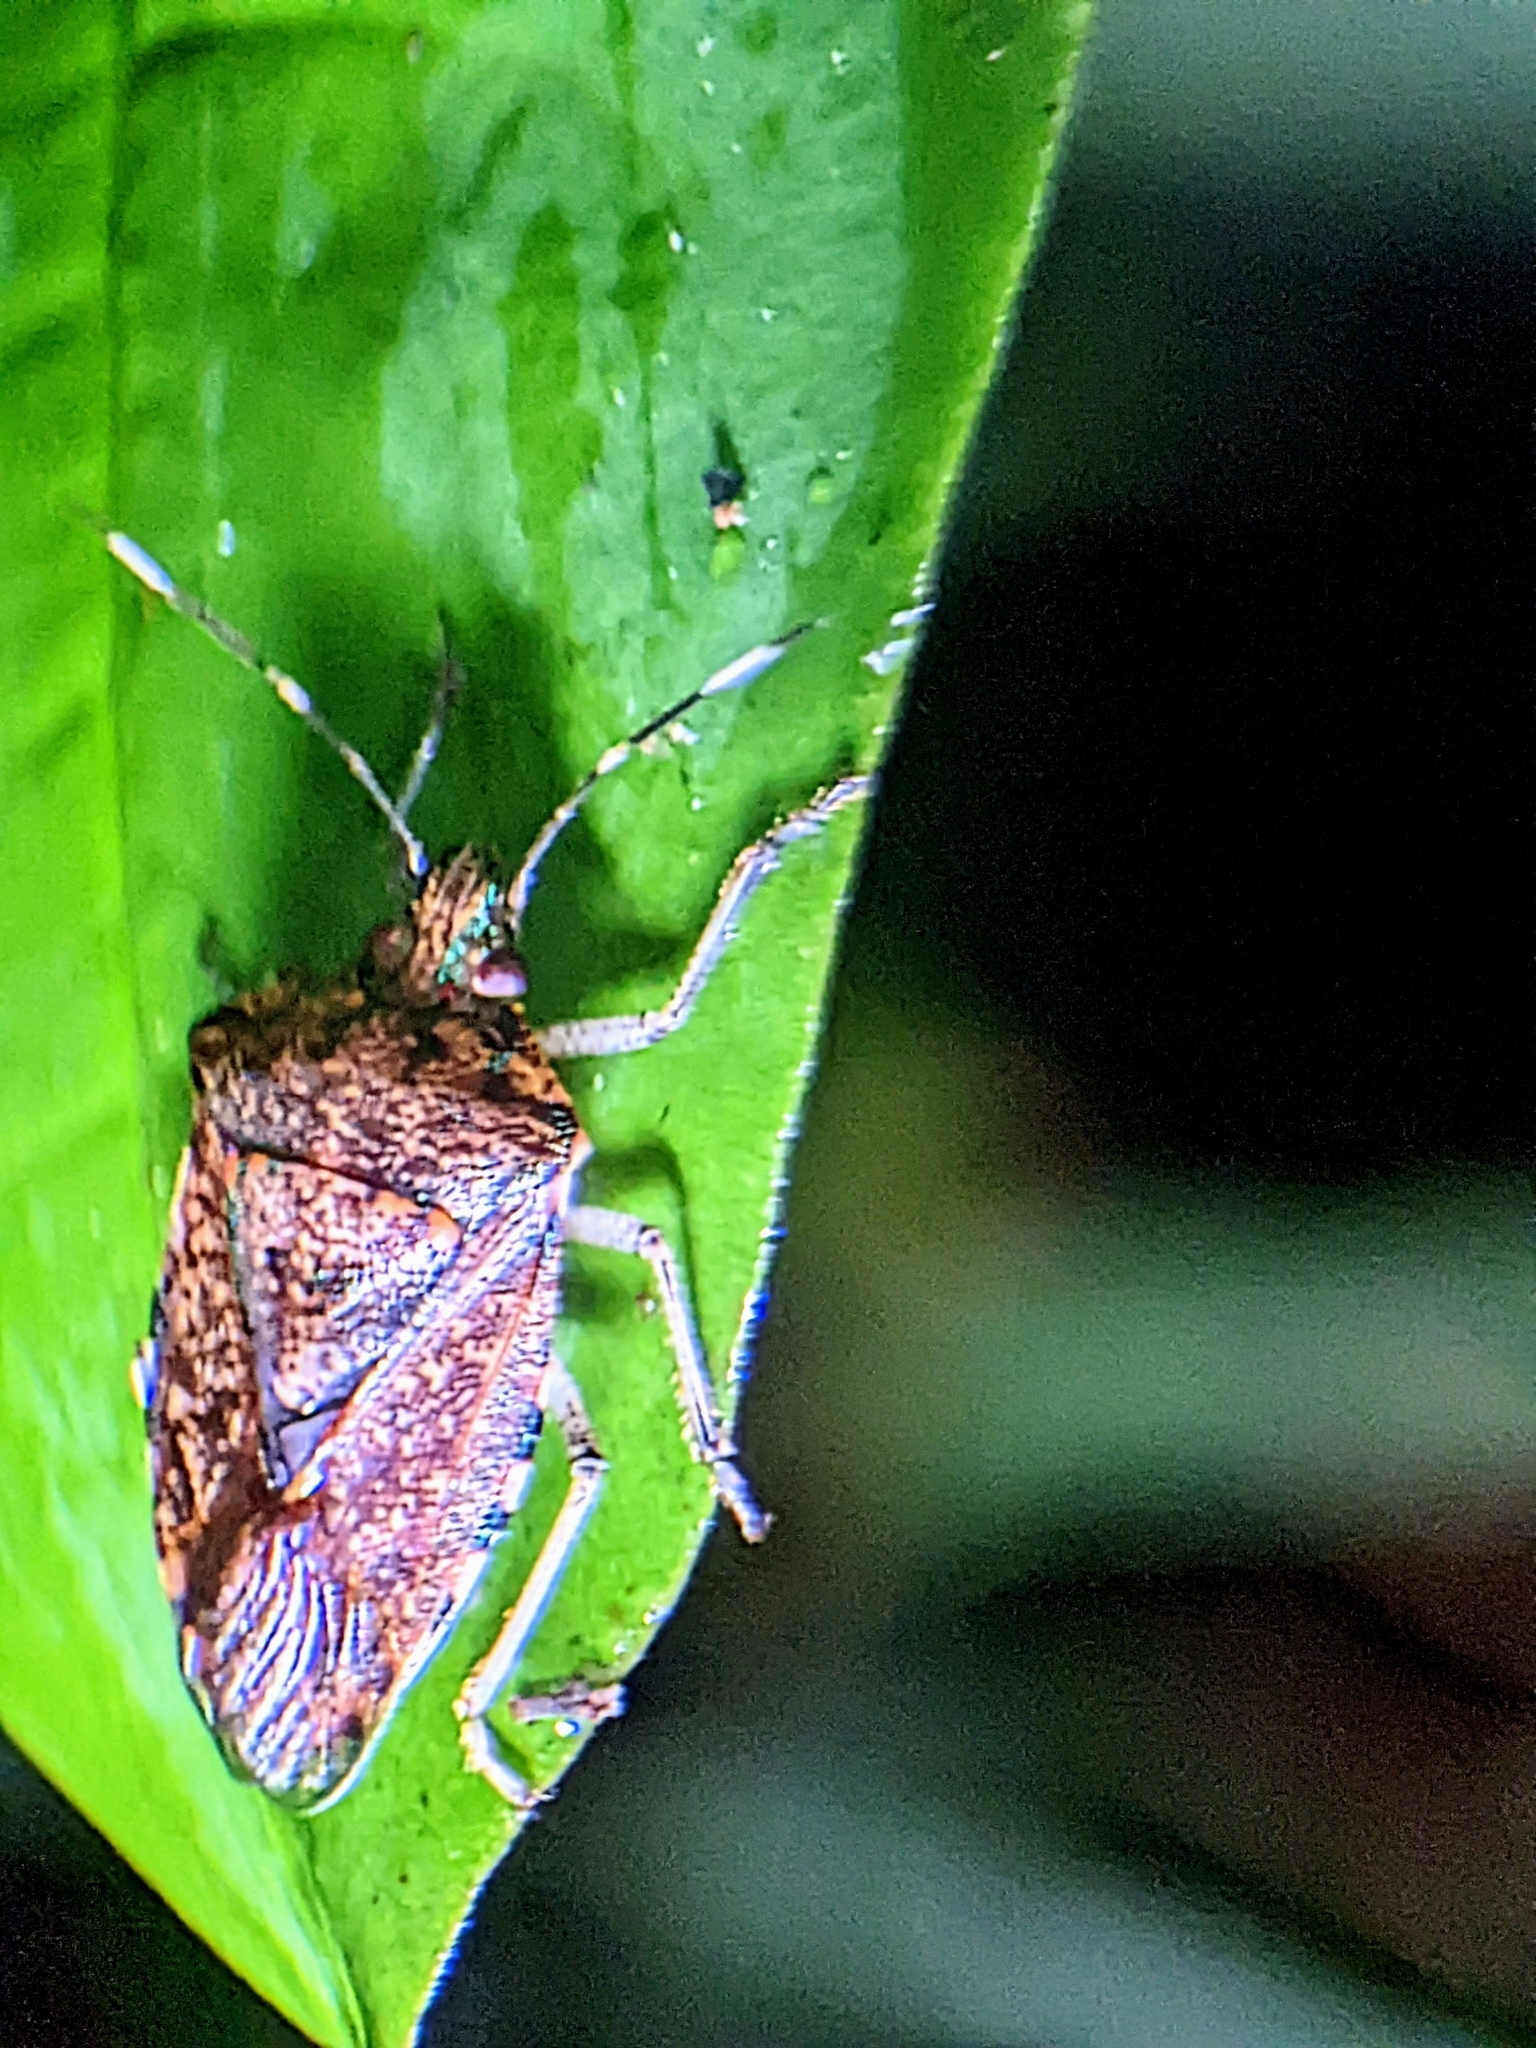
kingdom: Animalia
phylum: Arthropoda
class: Insecta
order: Hemiptera
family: Pentatomidae
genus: Tolumnia
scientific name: Tolumnia
